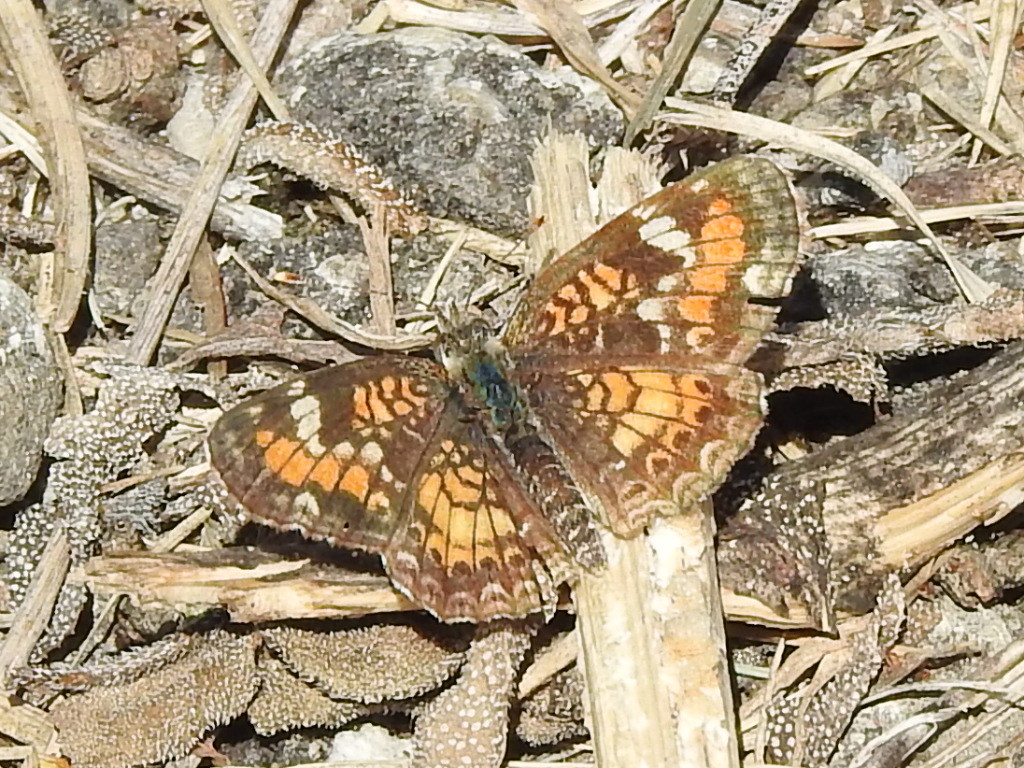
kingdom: Animalia
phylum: Arthropoda
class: Insecta
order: Lepidoptera
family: Nymphalidae
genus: Phyciodes
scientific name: Phyciodes phaon
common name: Phaon crescent
